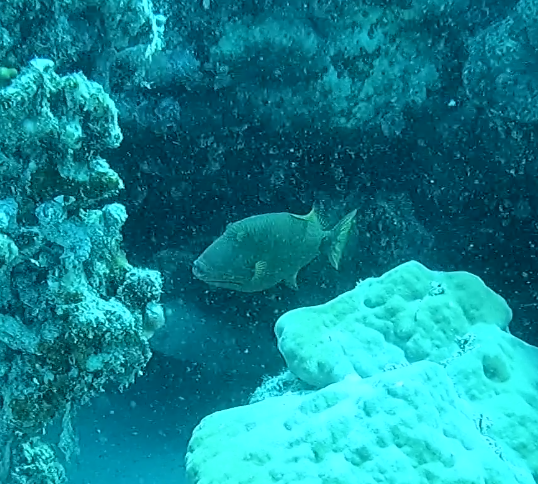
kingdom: Animalia
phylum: Chordata
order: Tetraodontiformes
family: Balistidae
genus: Balistapus
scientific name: Balistapus undulatus
